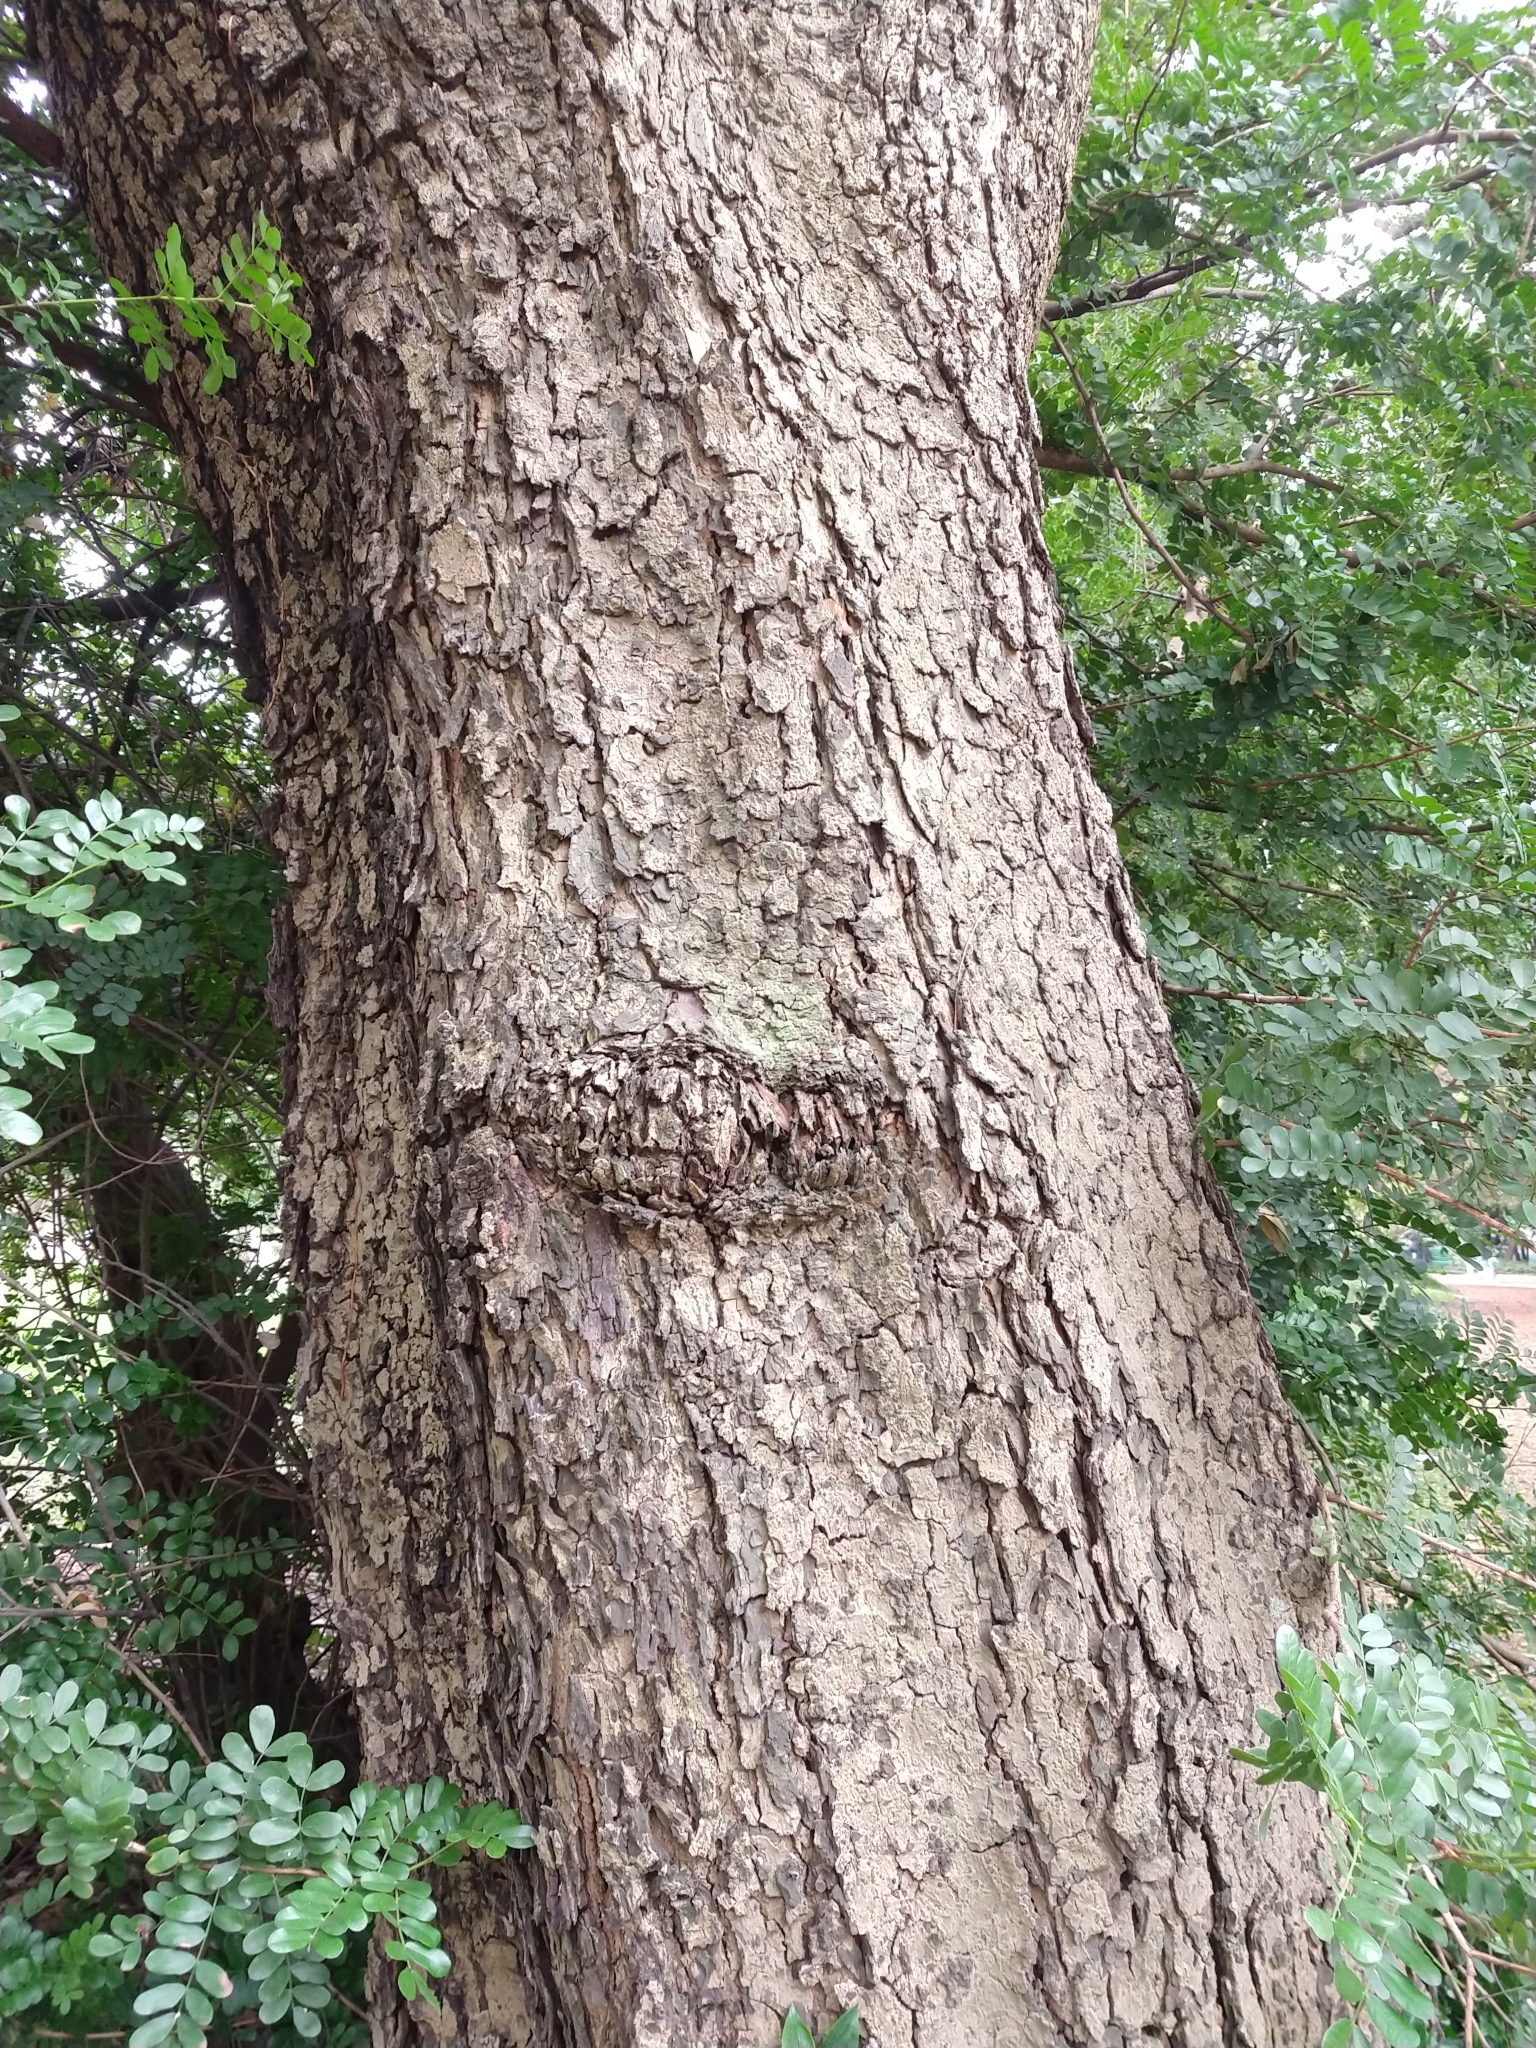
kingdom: Plantae
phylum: Tracheophyta
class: Magnoliopsida
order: Fabales
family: Fabaceae
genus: Pterogyne
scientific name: Pterogyne nitens
